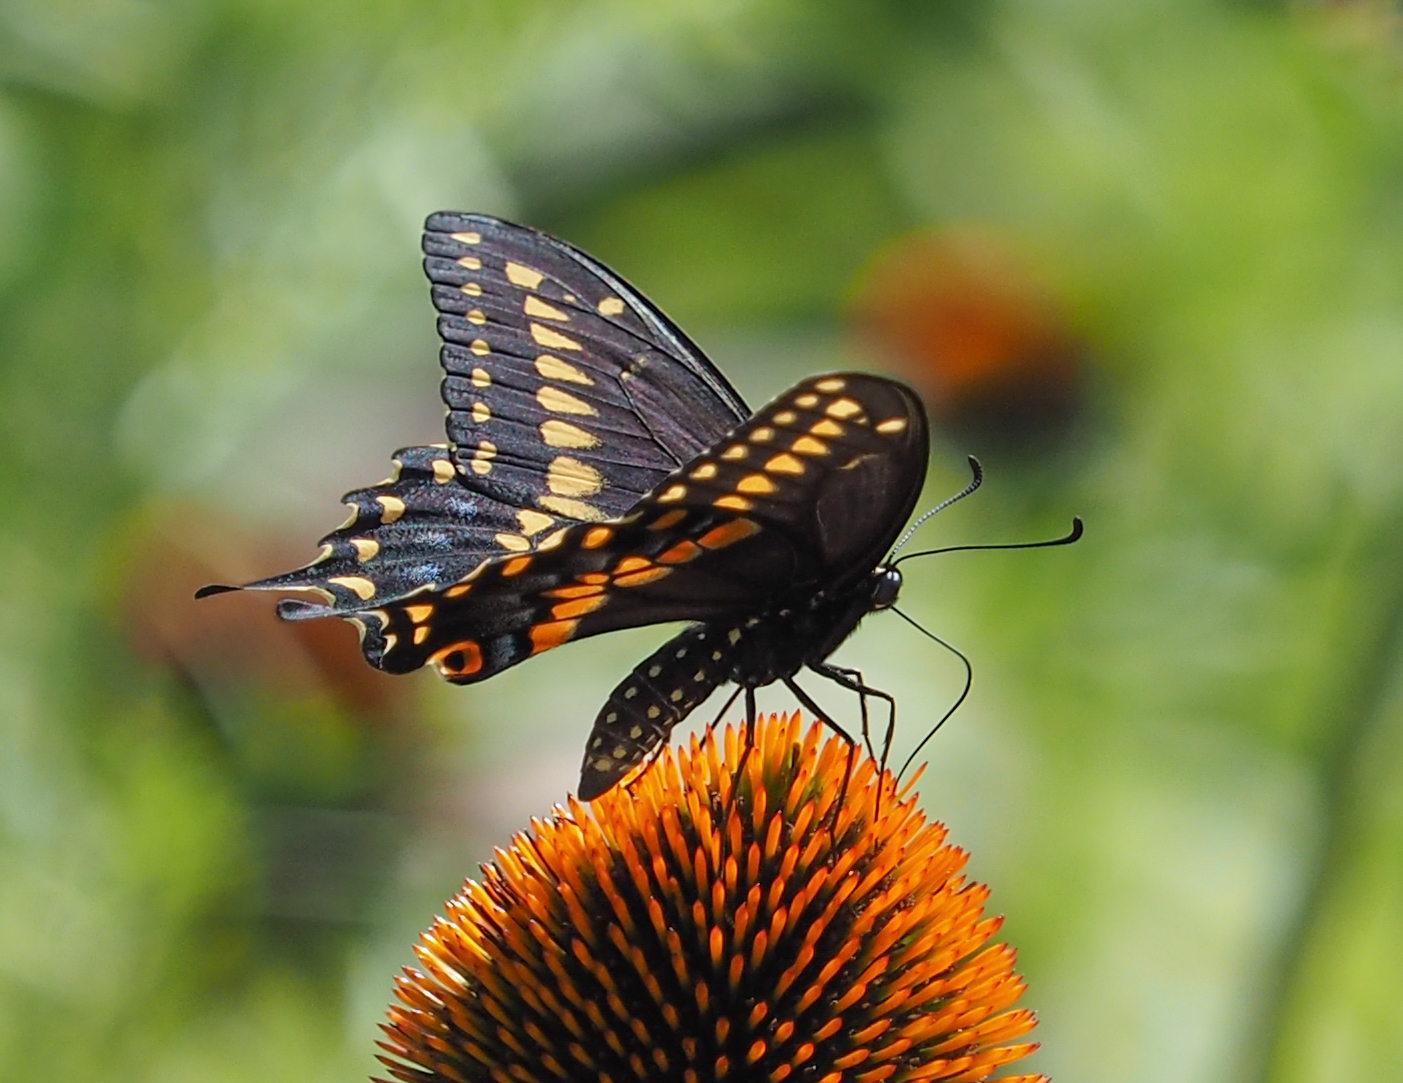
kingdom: Animalia
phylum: Arthropoda
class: Insecta
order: Lepidoptera
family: Papilionidae
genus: Papilio
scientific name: Papilio polyxenes
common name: Black swallowtail
